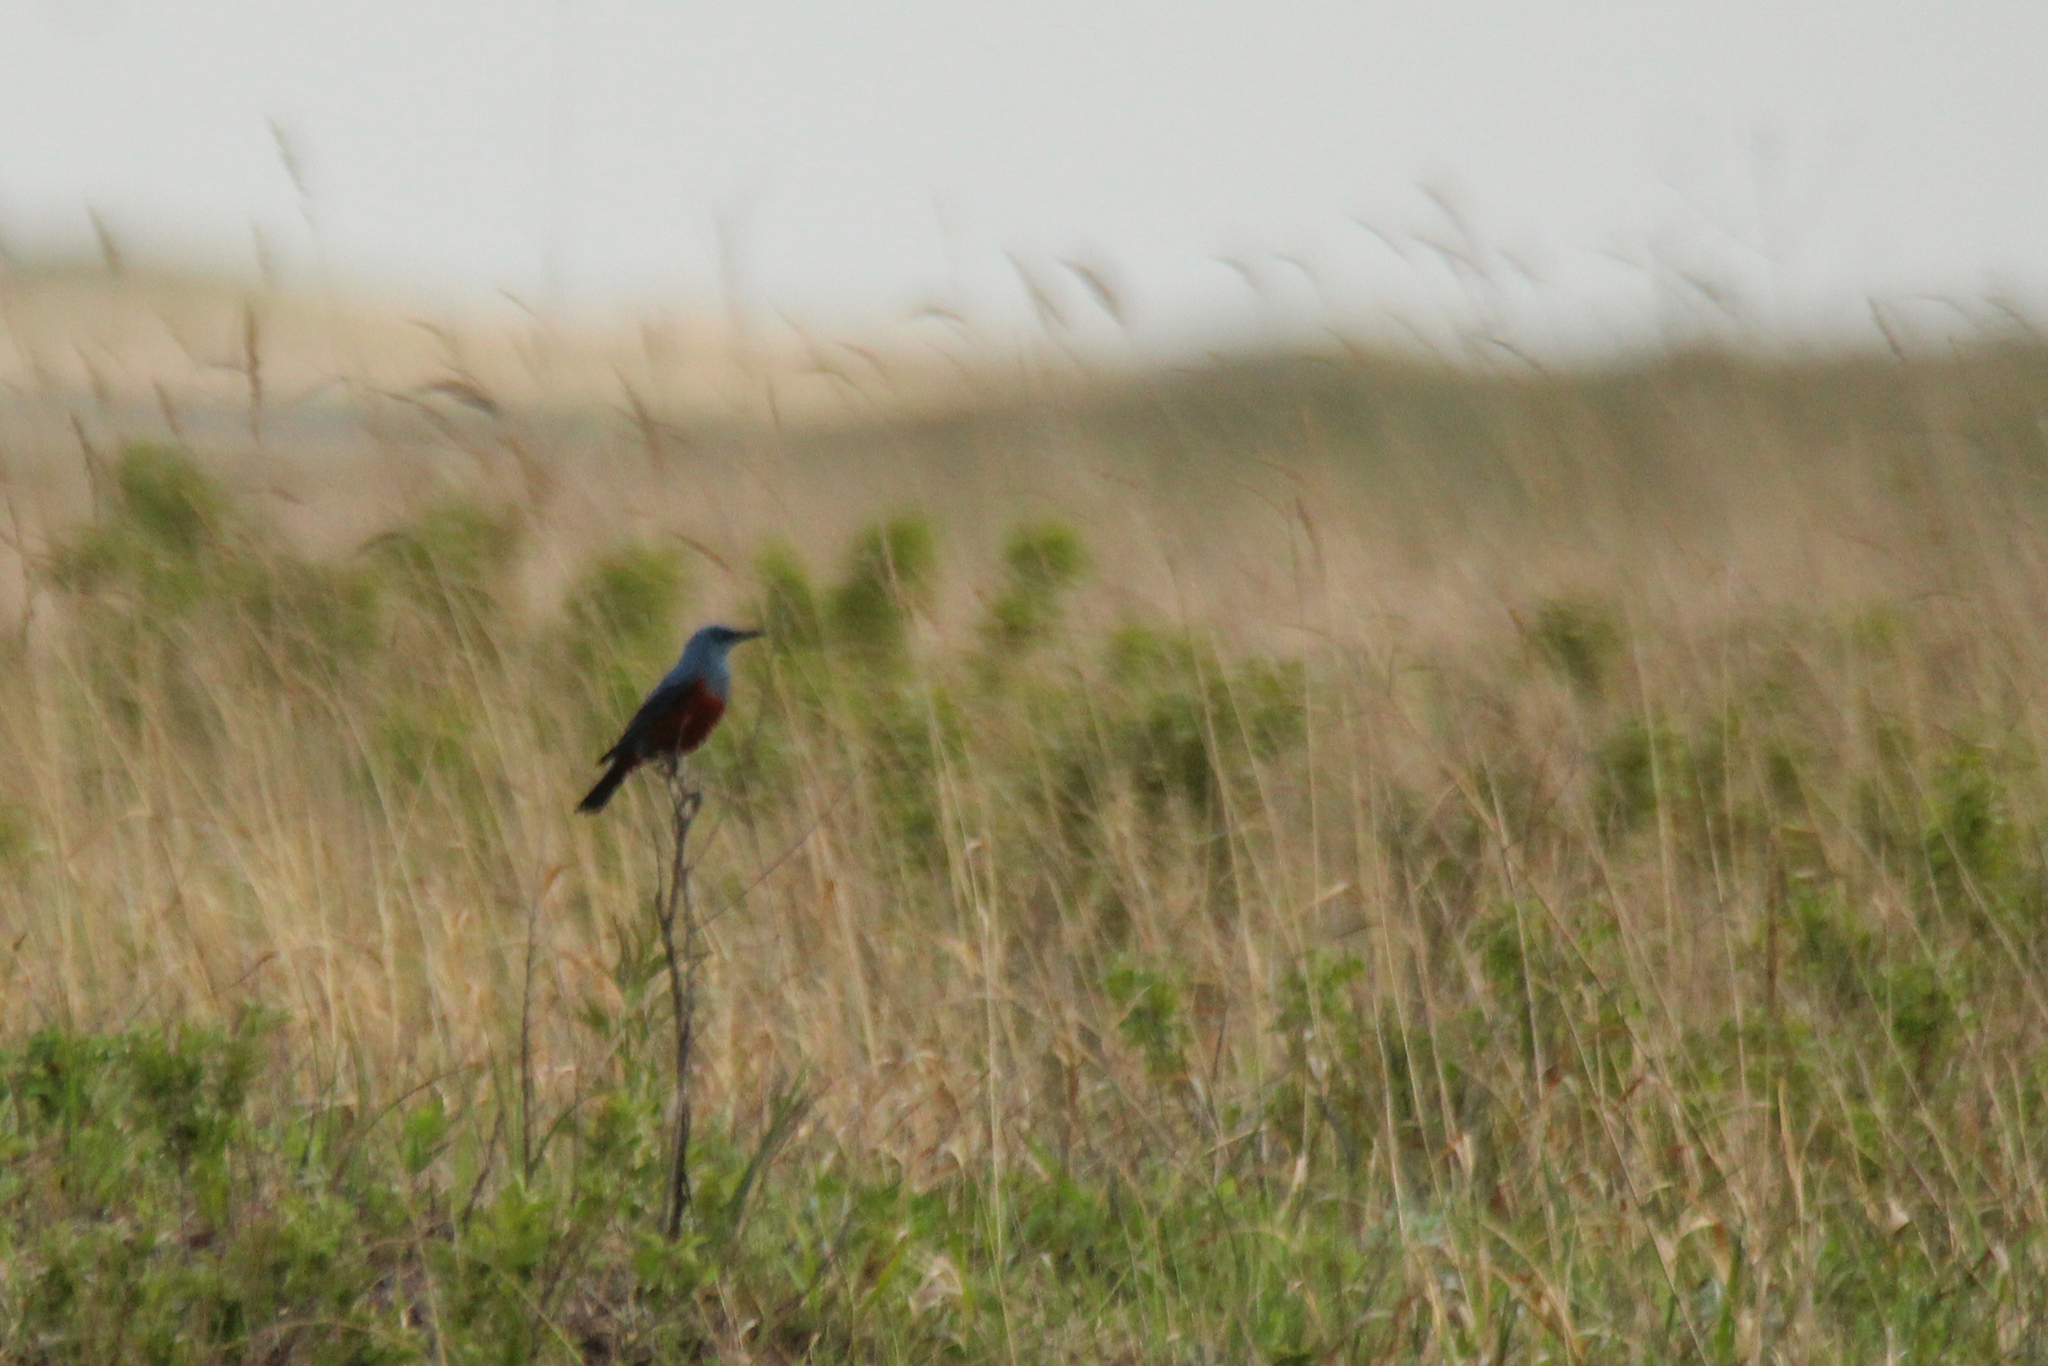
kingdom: Animalia
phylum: Chordata
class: Aves
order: Passeriformes
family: Muscicapidae
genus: Monticola
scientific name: Monticola solitarius
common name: Blue rock thrush
